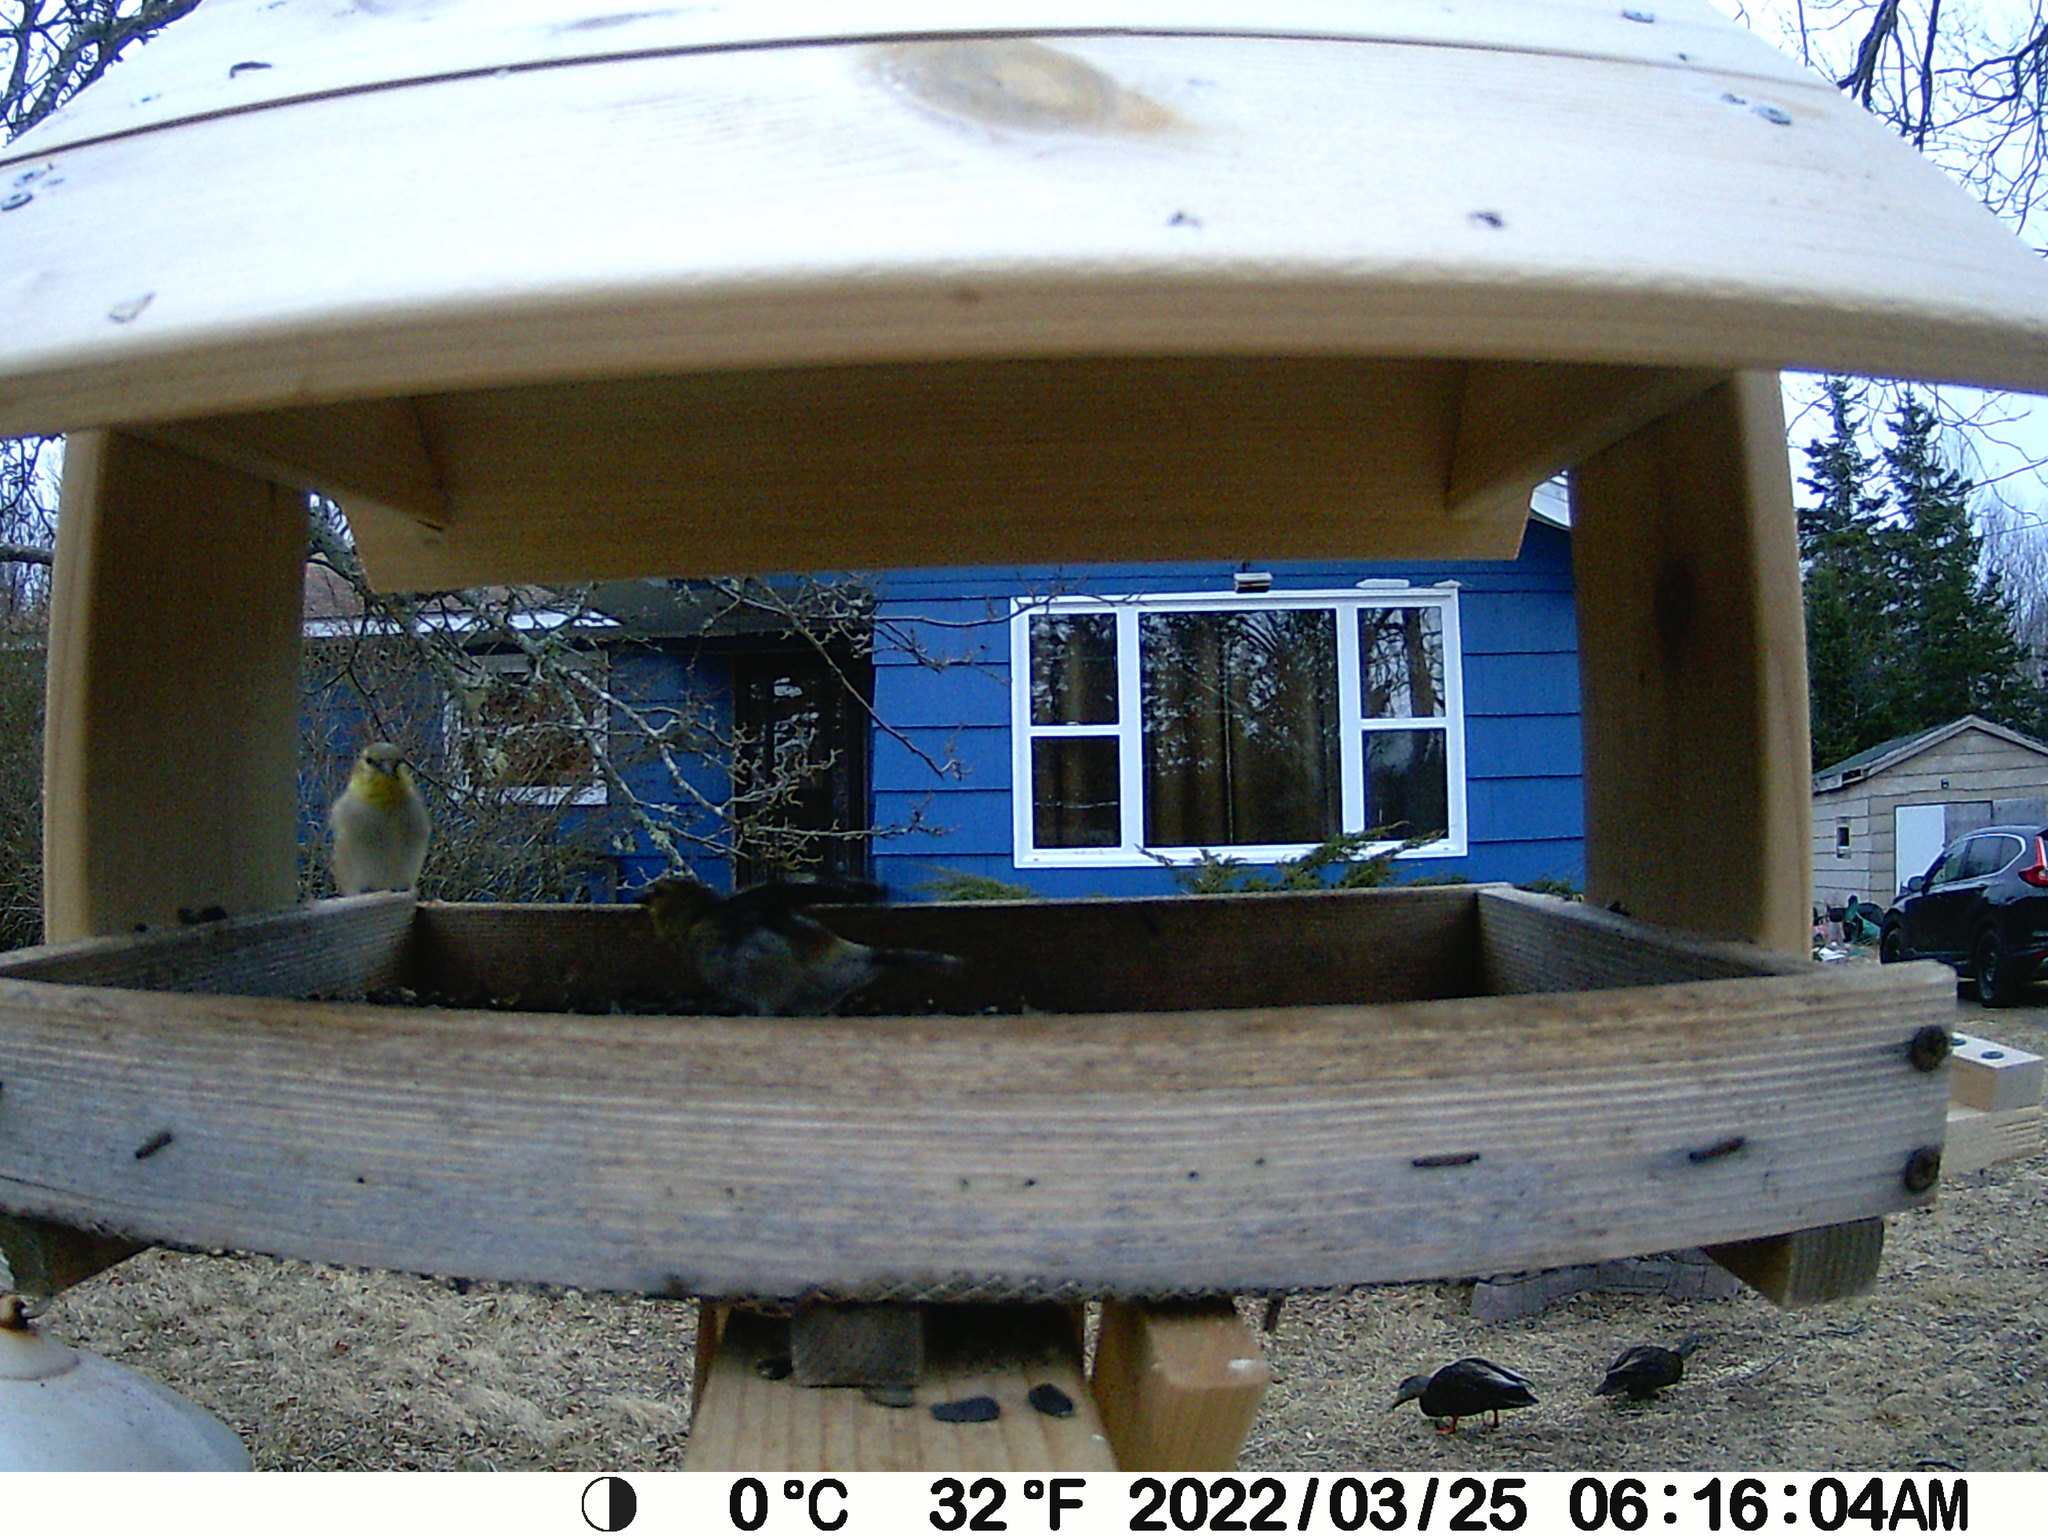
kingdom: Animalia
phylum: Chordata
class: Aves
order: Passeriformes
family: Fringillidae
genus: Spinus
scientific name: Spinus tristis
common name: American goldfinch
